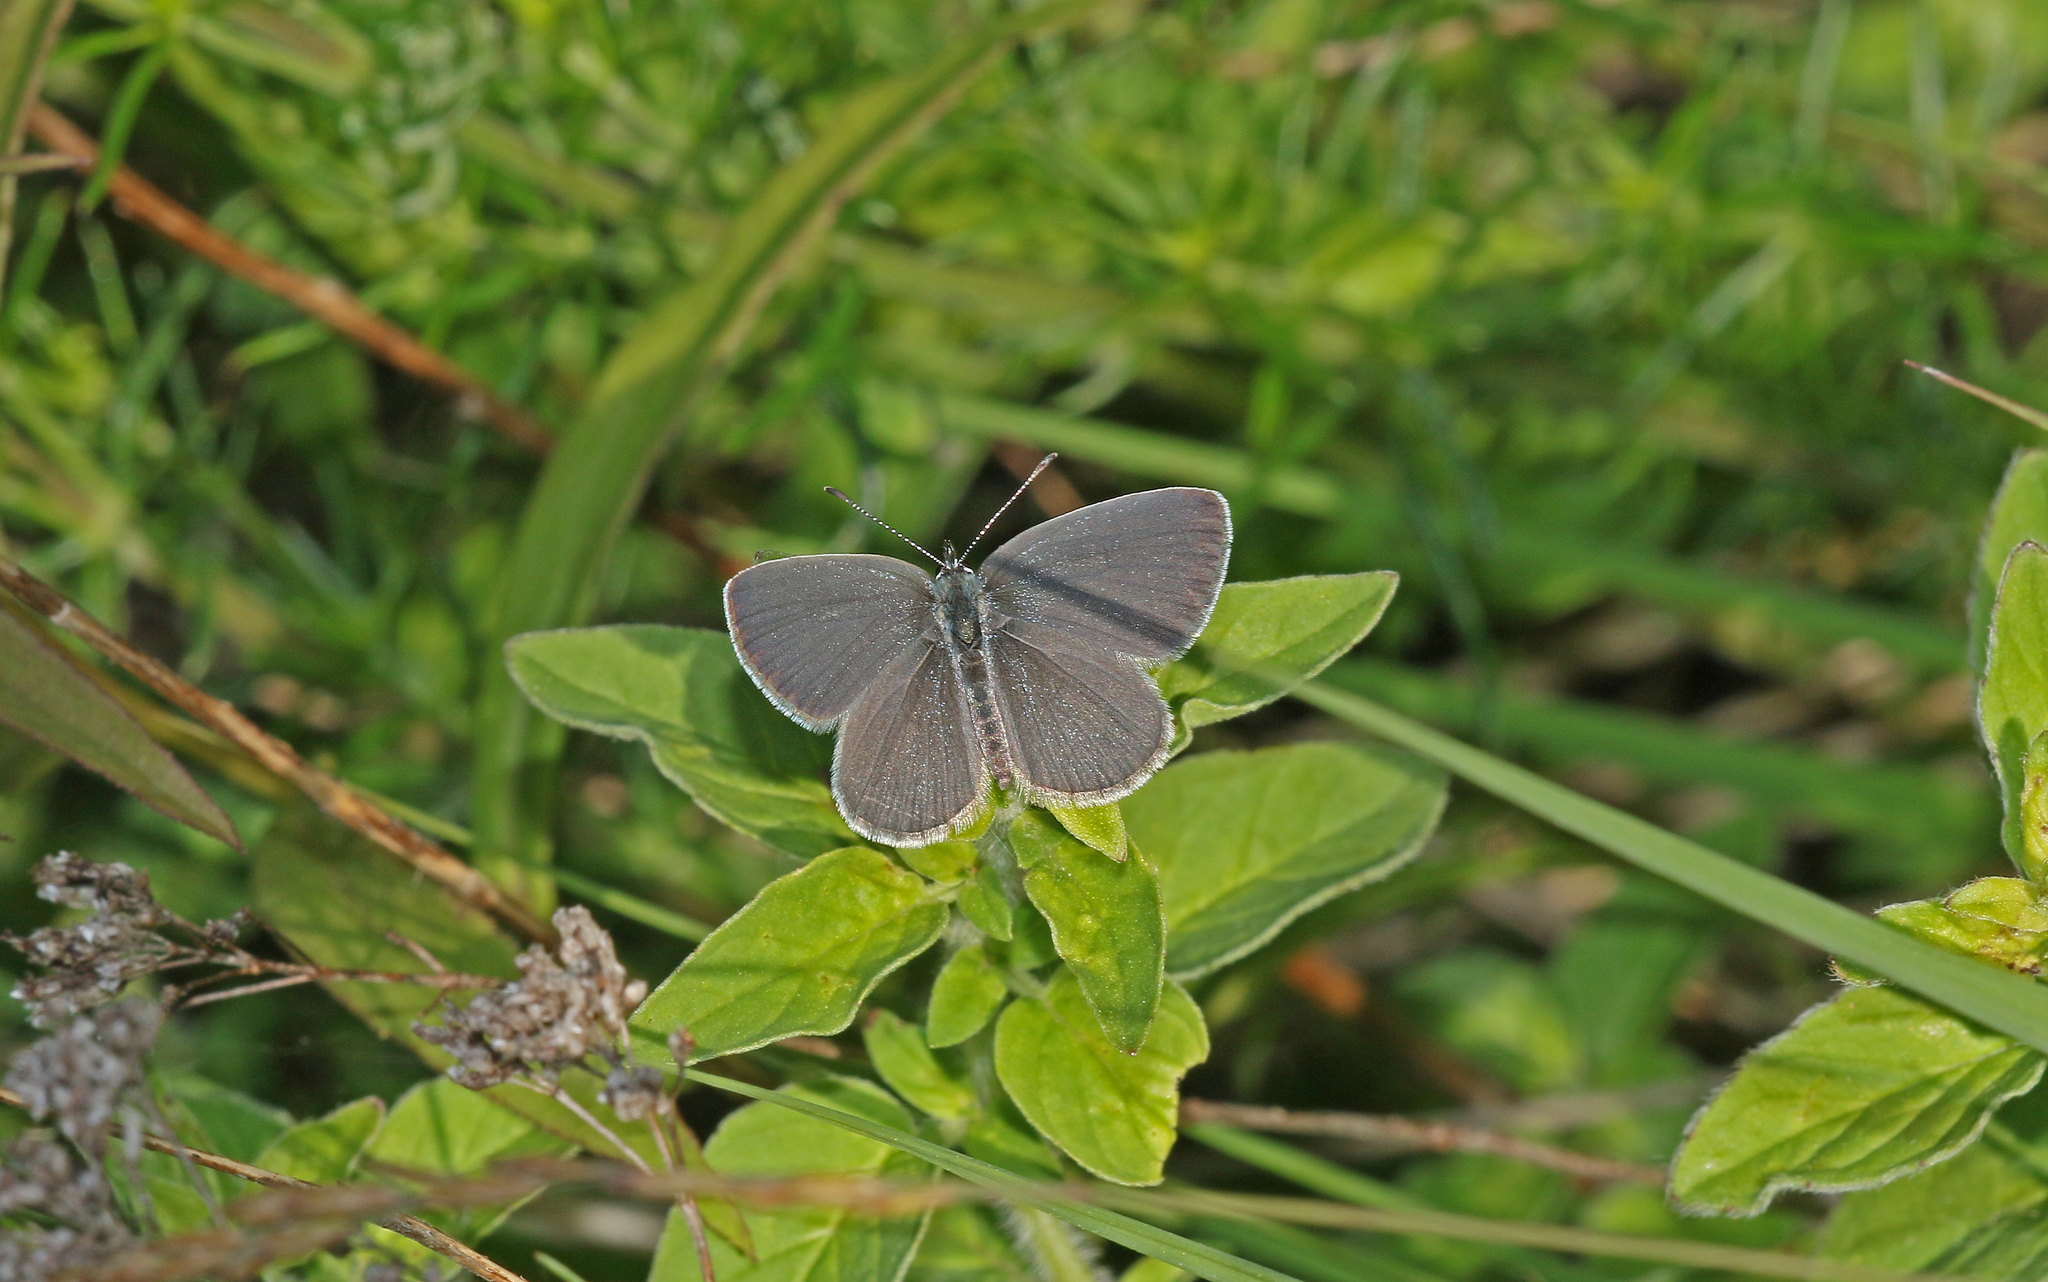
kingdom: Animalia
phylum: Arthropoda
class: Insecta
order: Lepidoptera
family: Lycaenidae
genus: Cupido
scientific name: Cupido minimus
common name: Small blue
